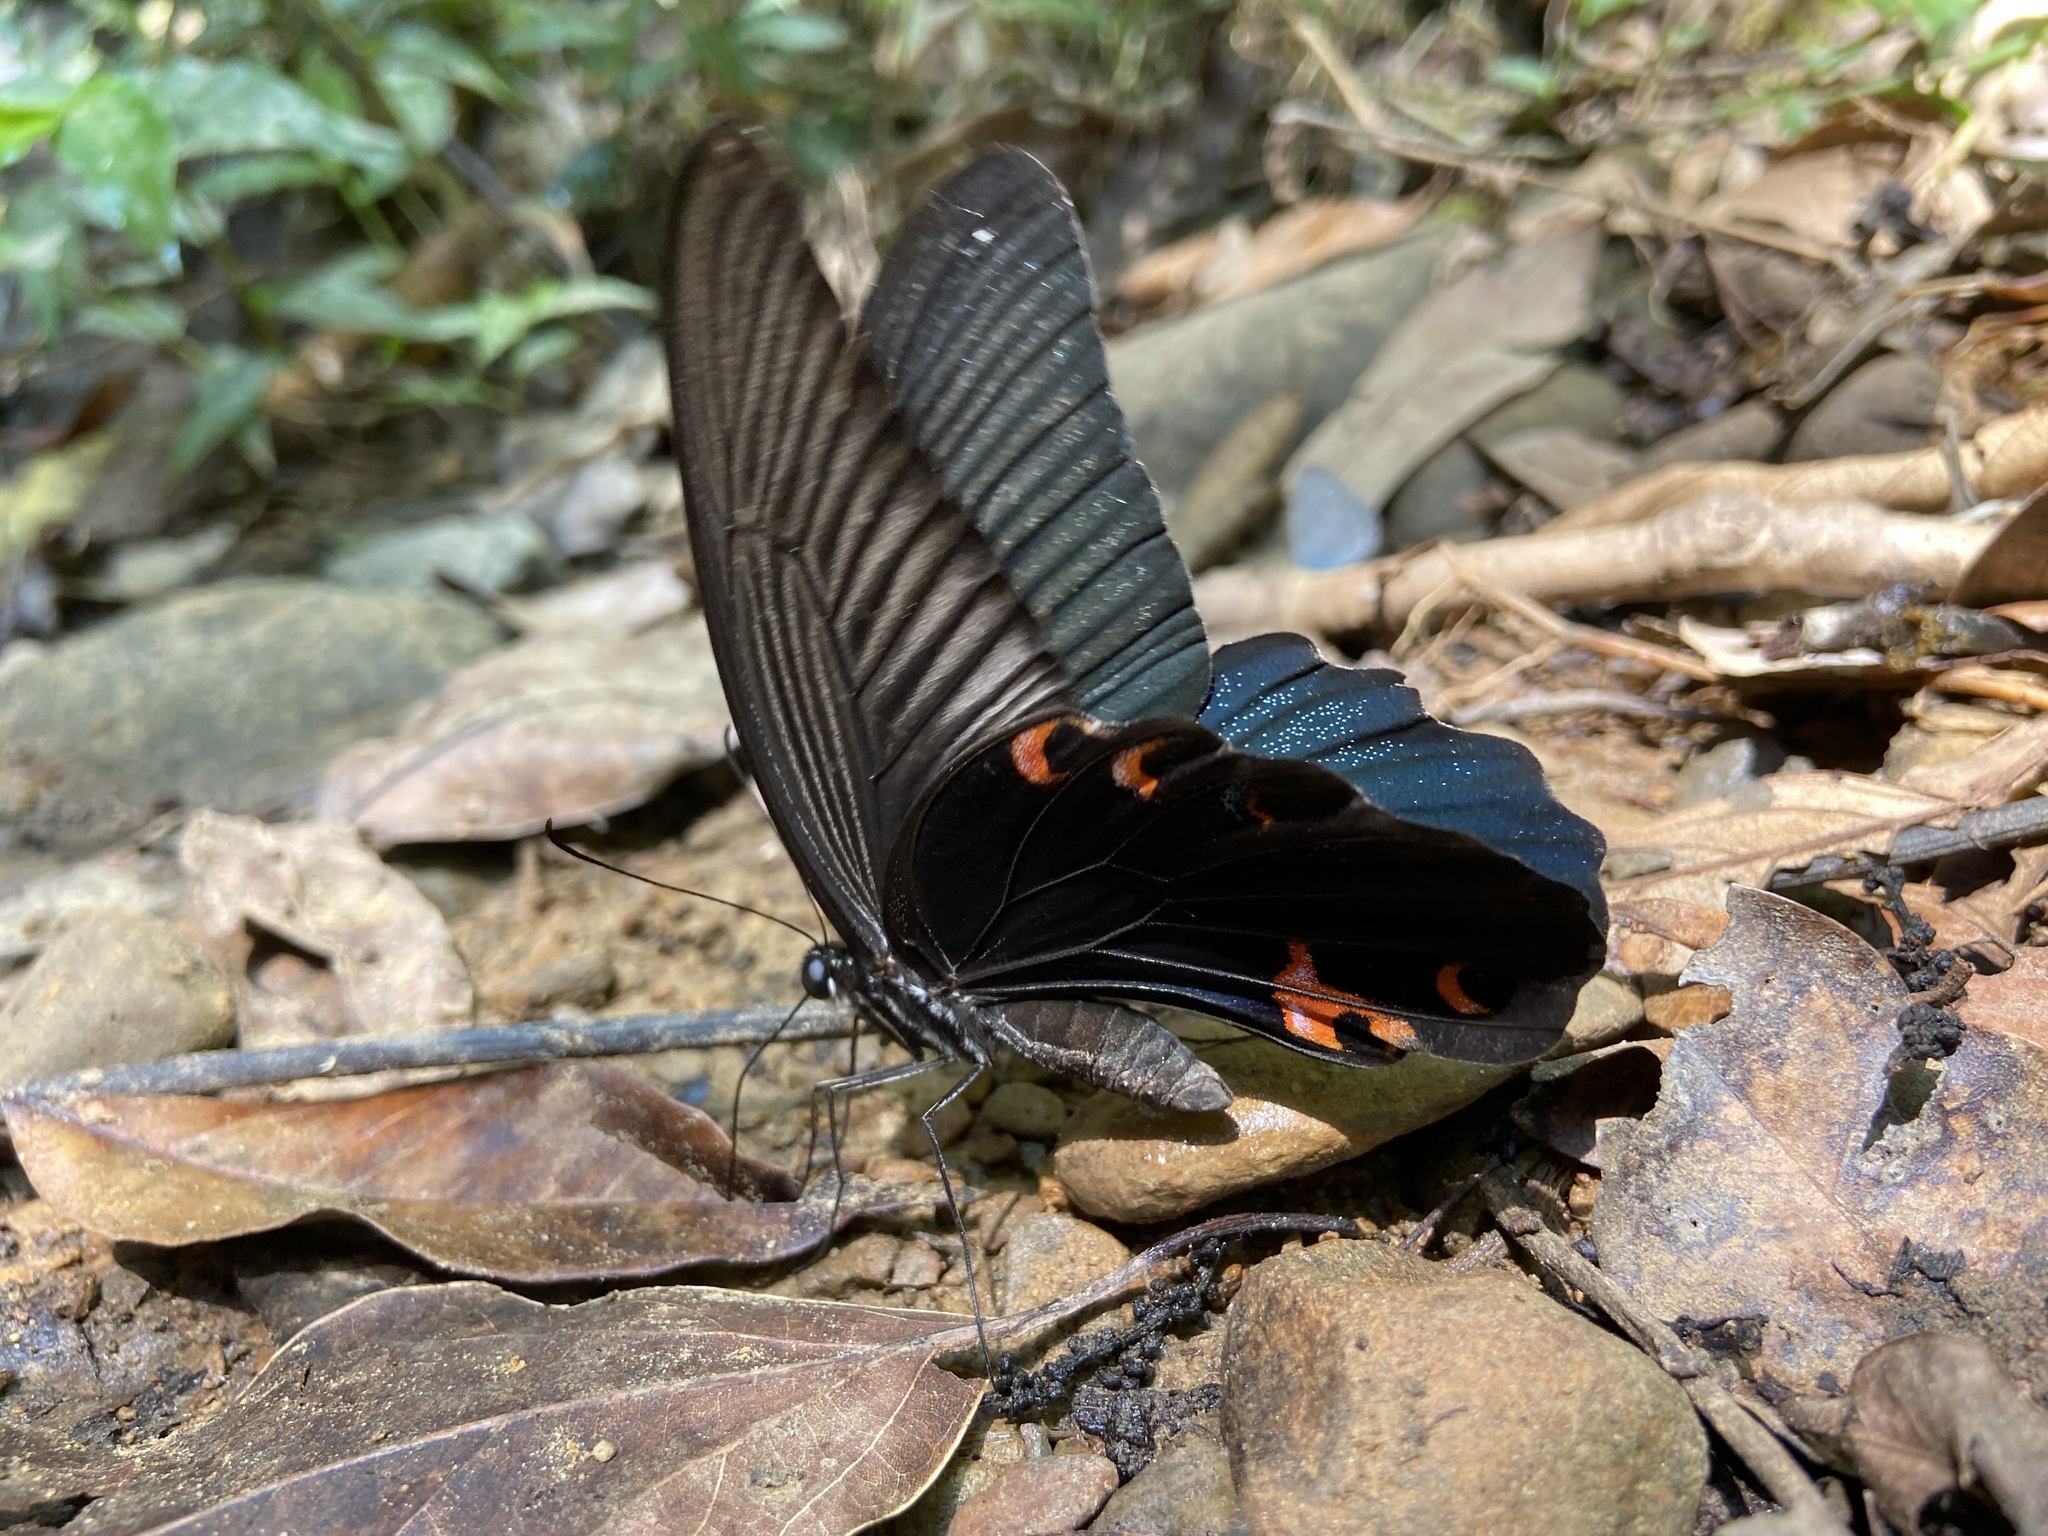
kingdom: Animalia
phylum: Arthropoda
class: Insecta
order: Lepidoptera
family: Papilionidae
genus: Papilio
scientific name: Papilio protenor
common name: Spangle
